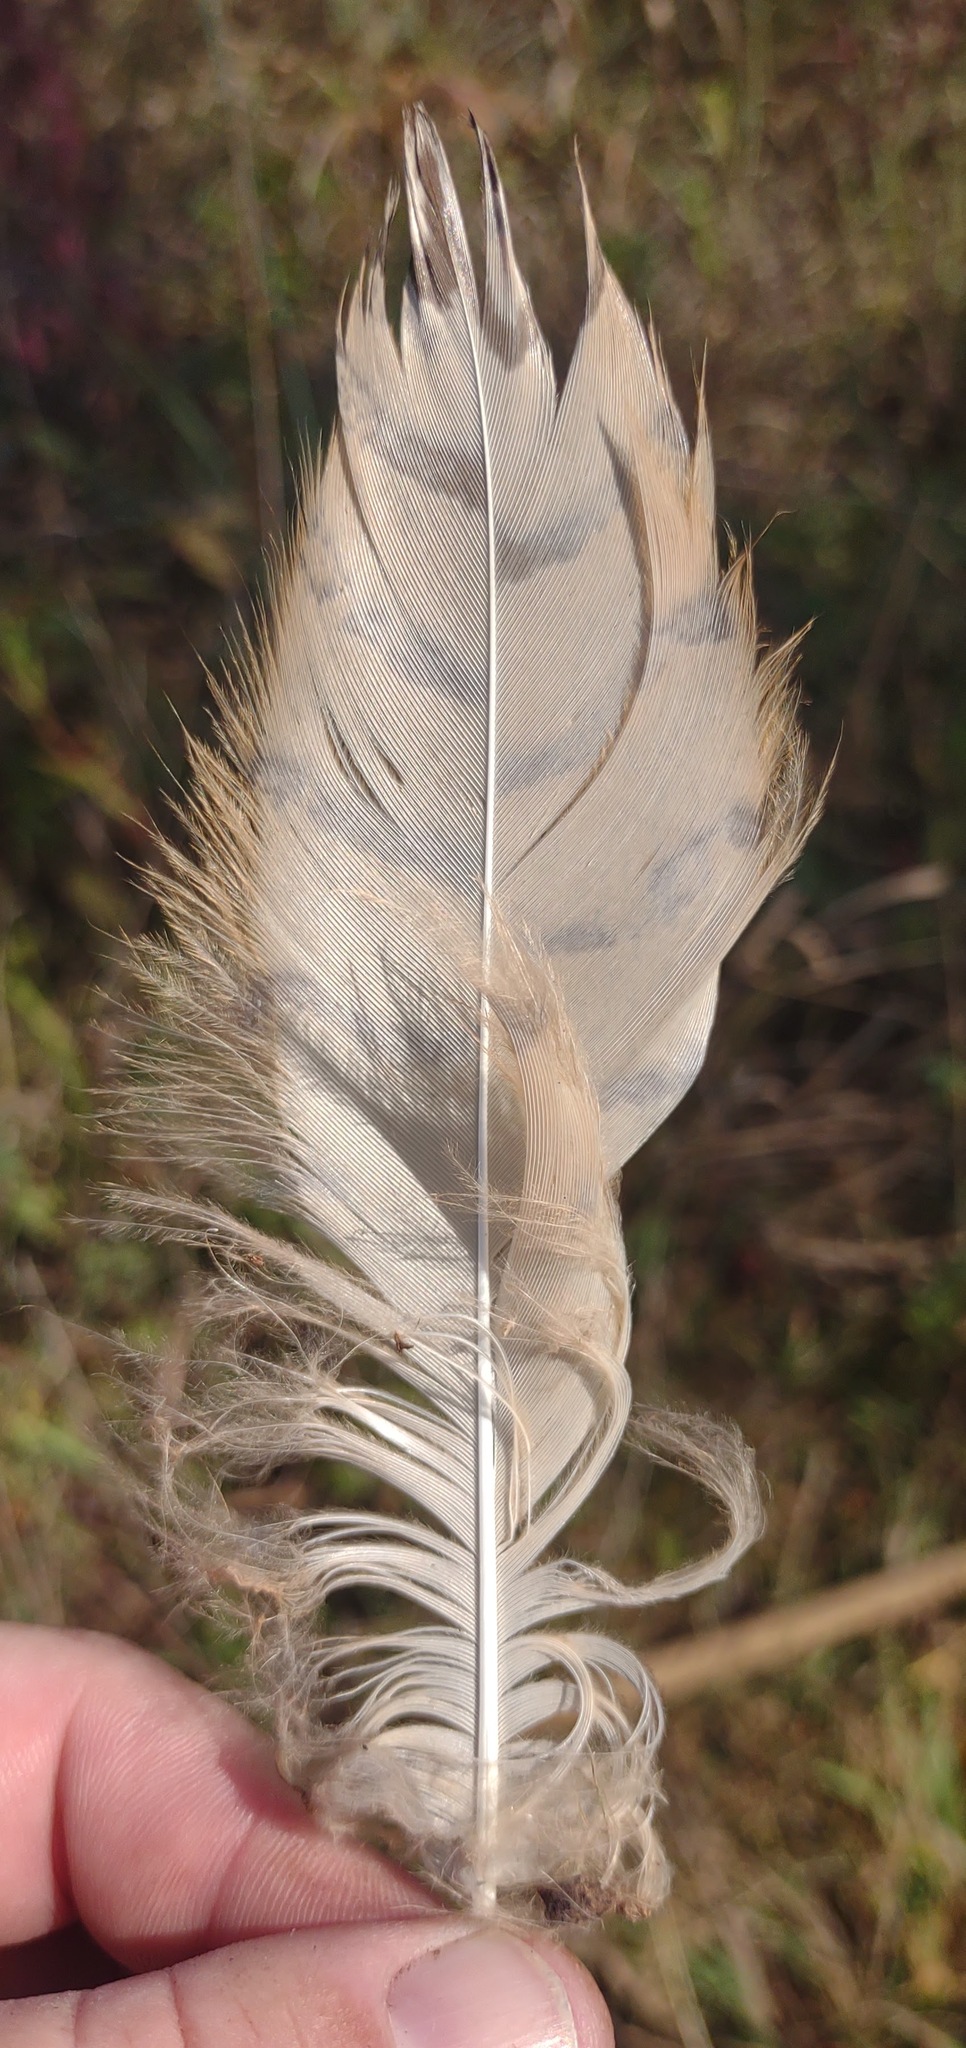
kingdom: Animalia
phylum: Chordata
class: Aves
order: Strigiformes
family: Strigidae
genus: Bubo
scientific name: Bubo virginianus
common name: Great horned owl
